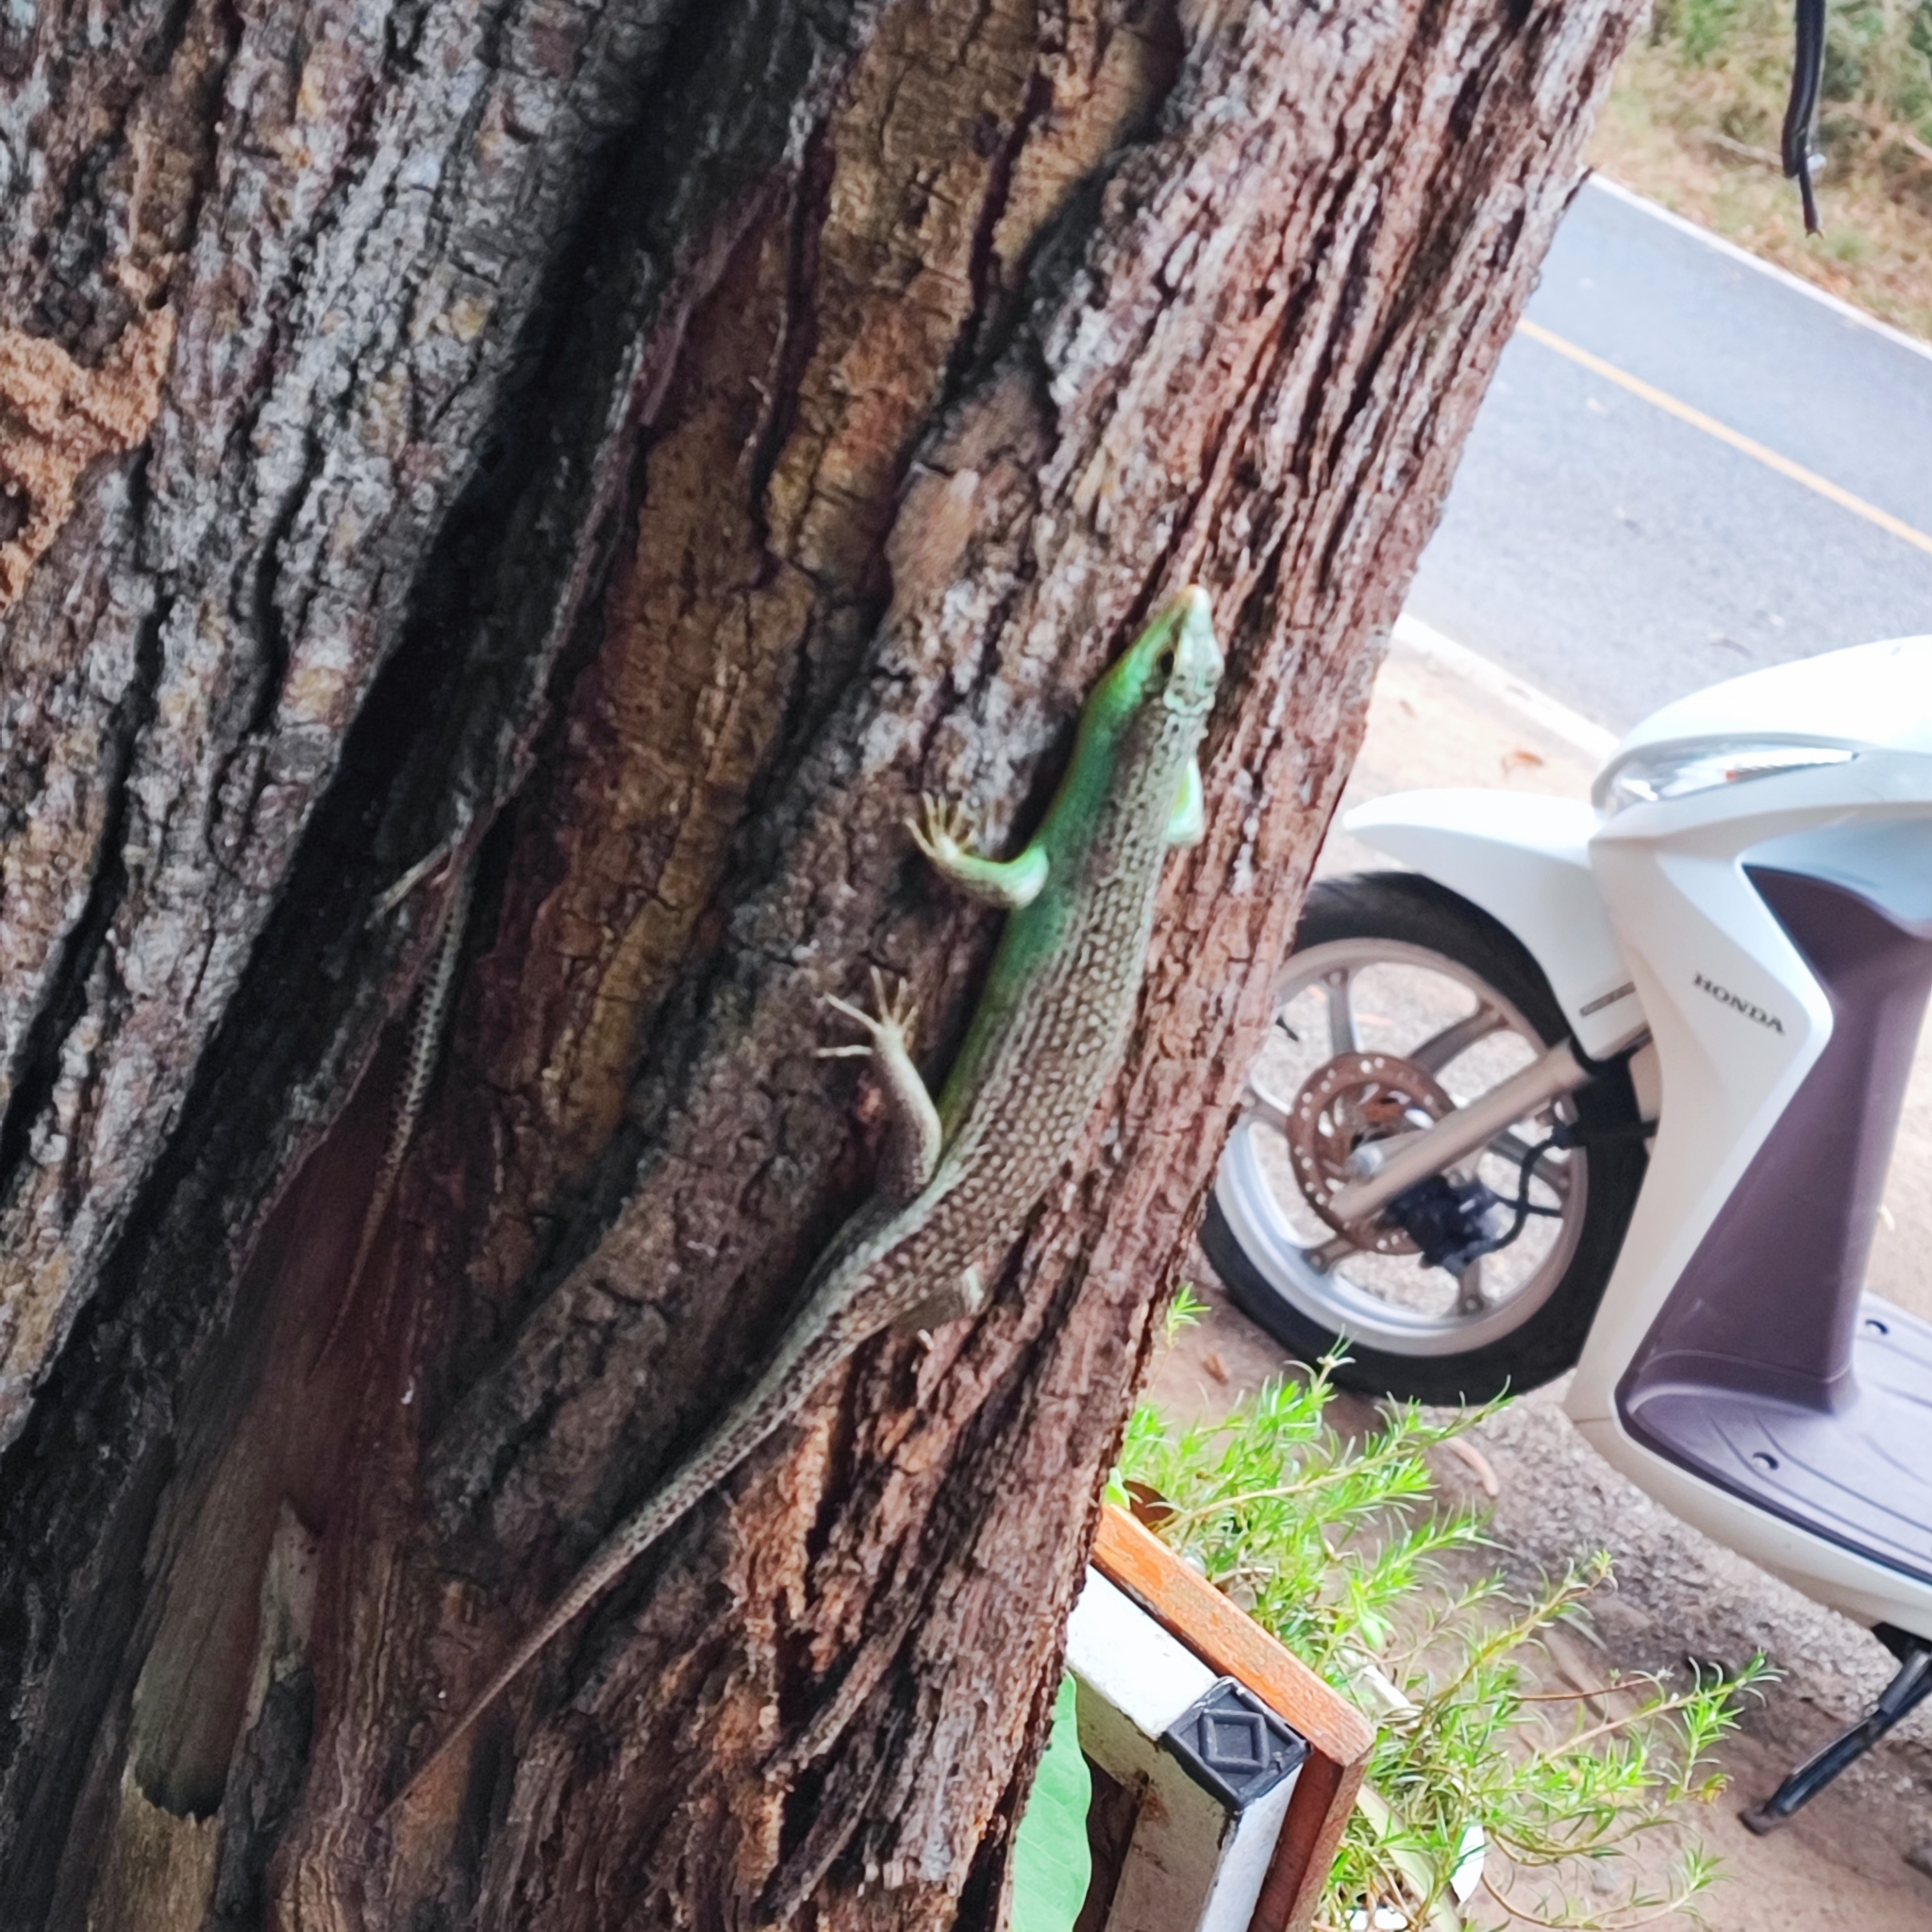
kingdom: Animalia
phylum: Chordata
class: Squamata
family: Scincidae
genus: Dasia
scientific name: Dasia olivacea
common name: Olive dasia
